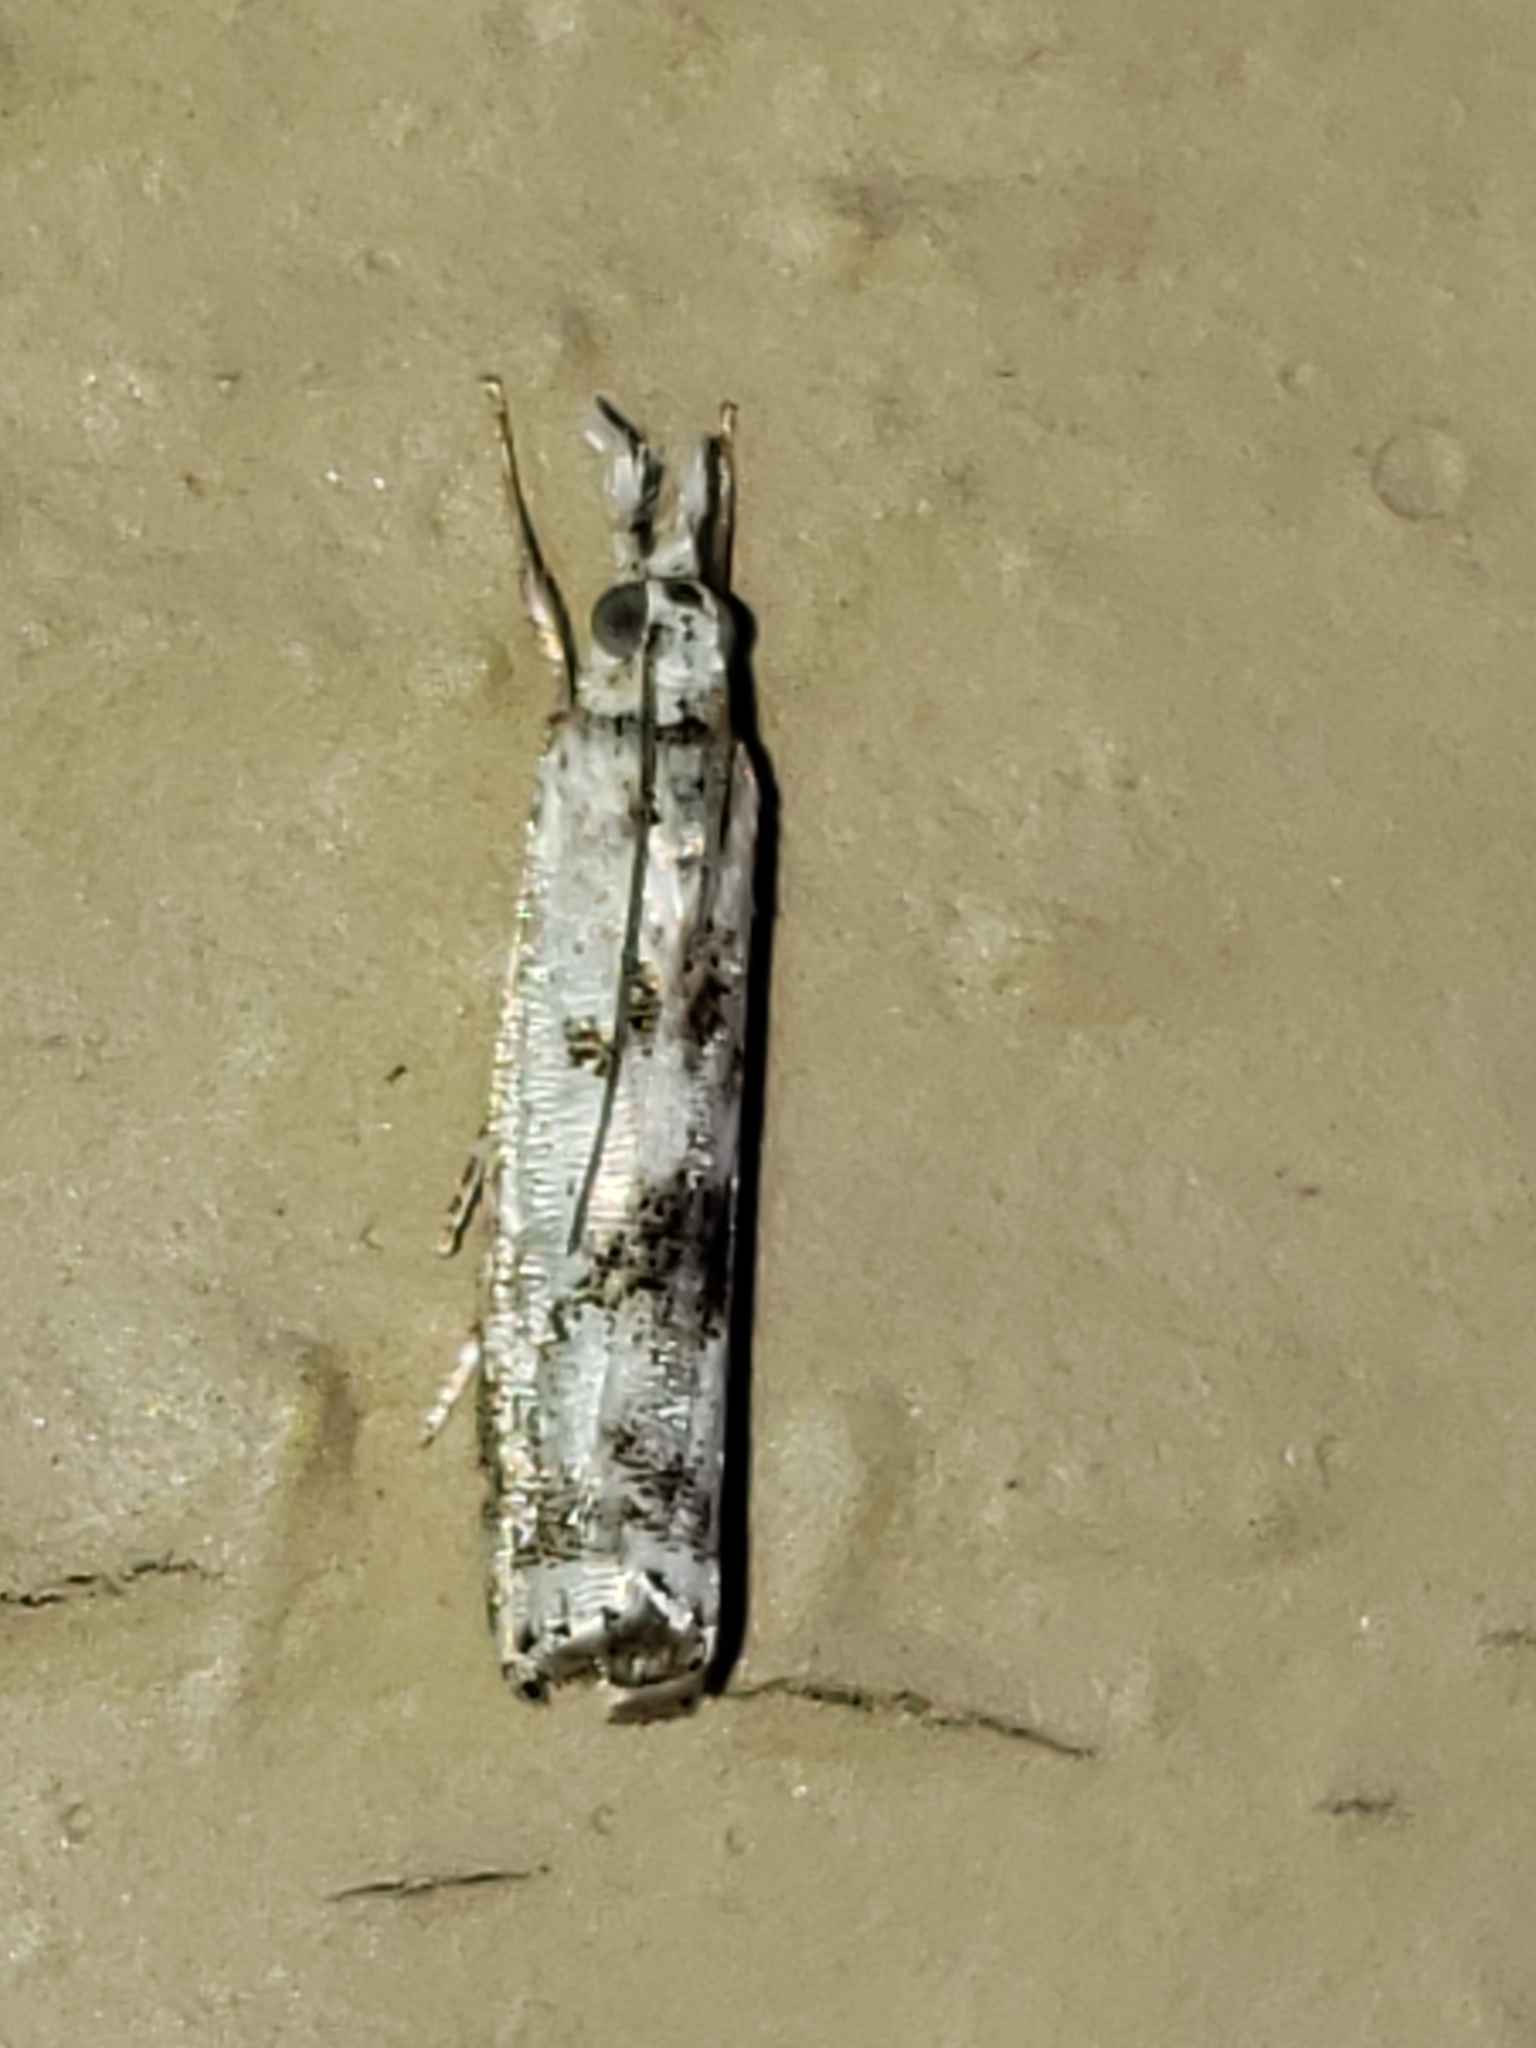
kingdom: Animalia
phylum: Arthropoda
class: Insecta
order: Lepidoptera
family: Crambidae
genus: Microcrambus
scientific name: Microcrambus elegans
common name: Elegant grass-veneer
